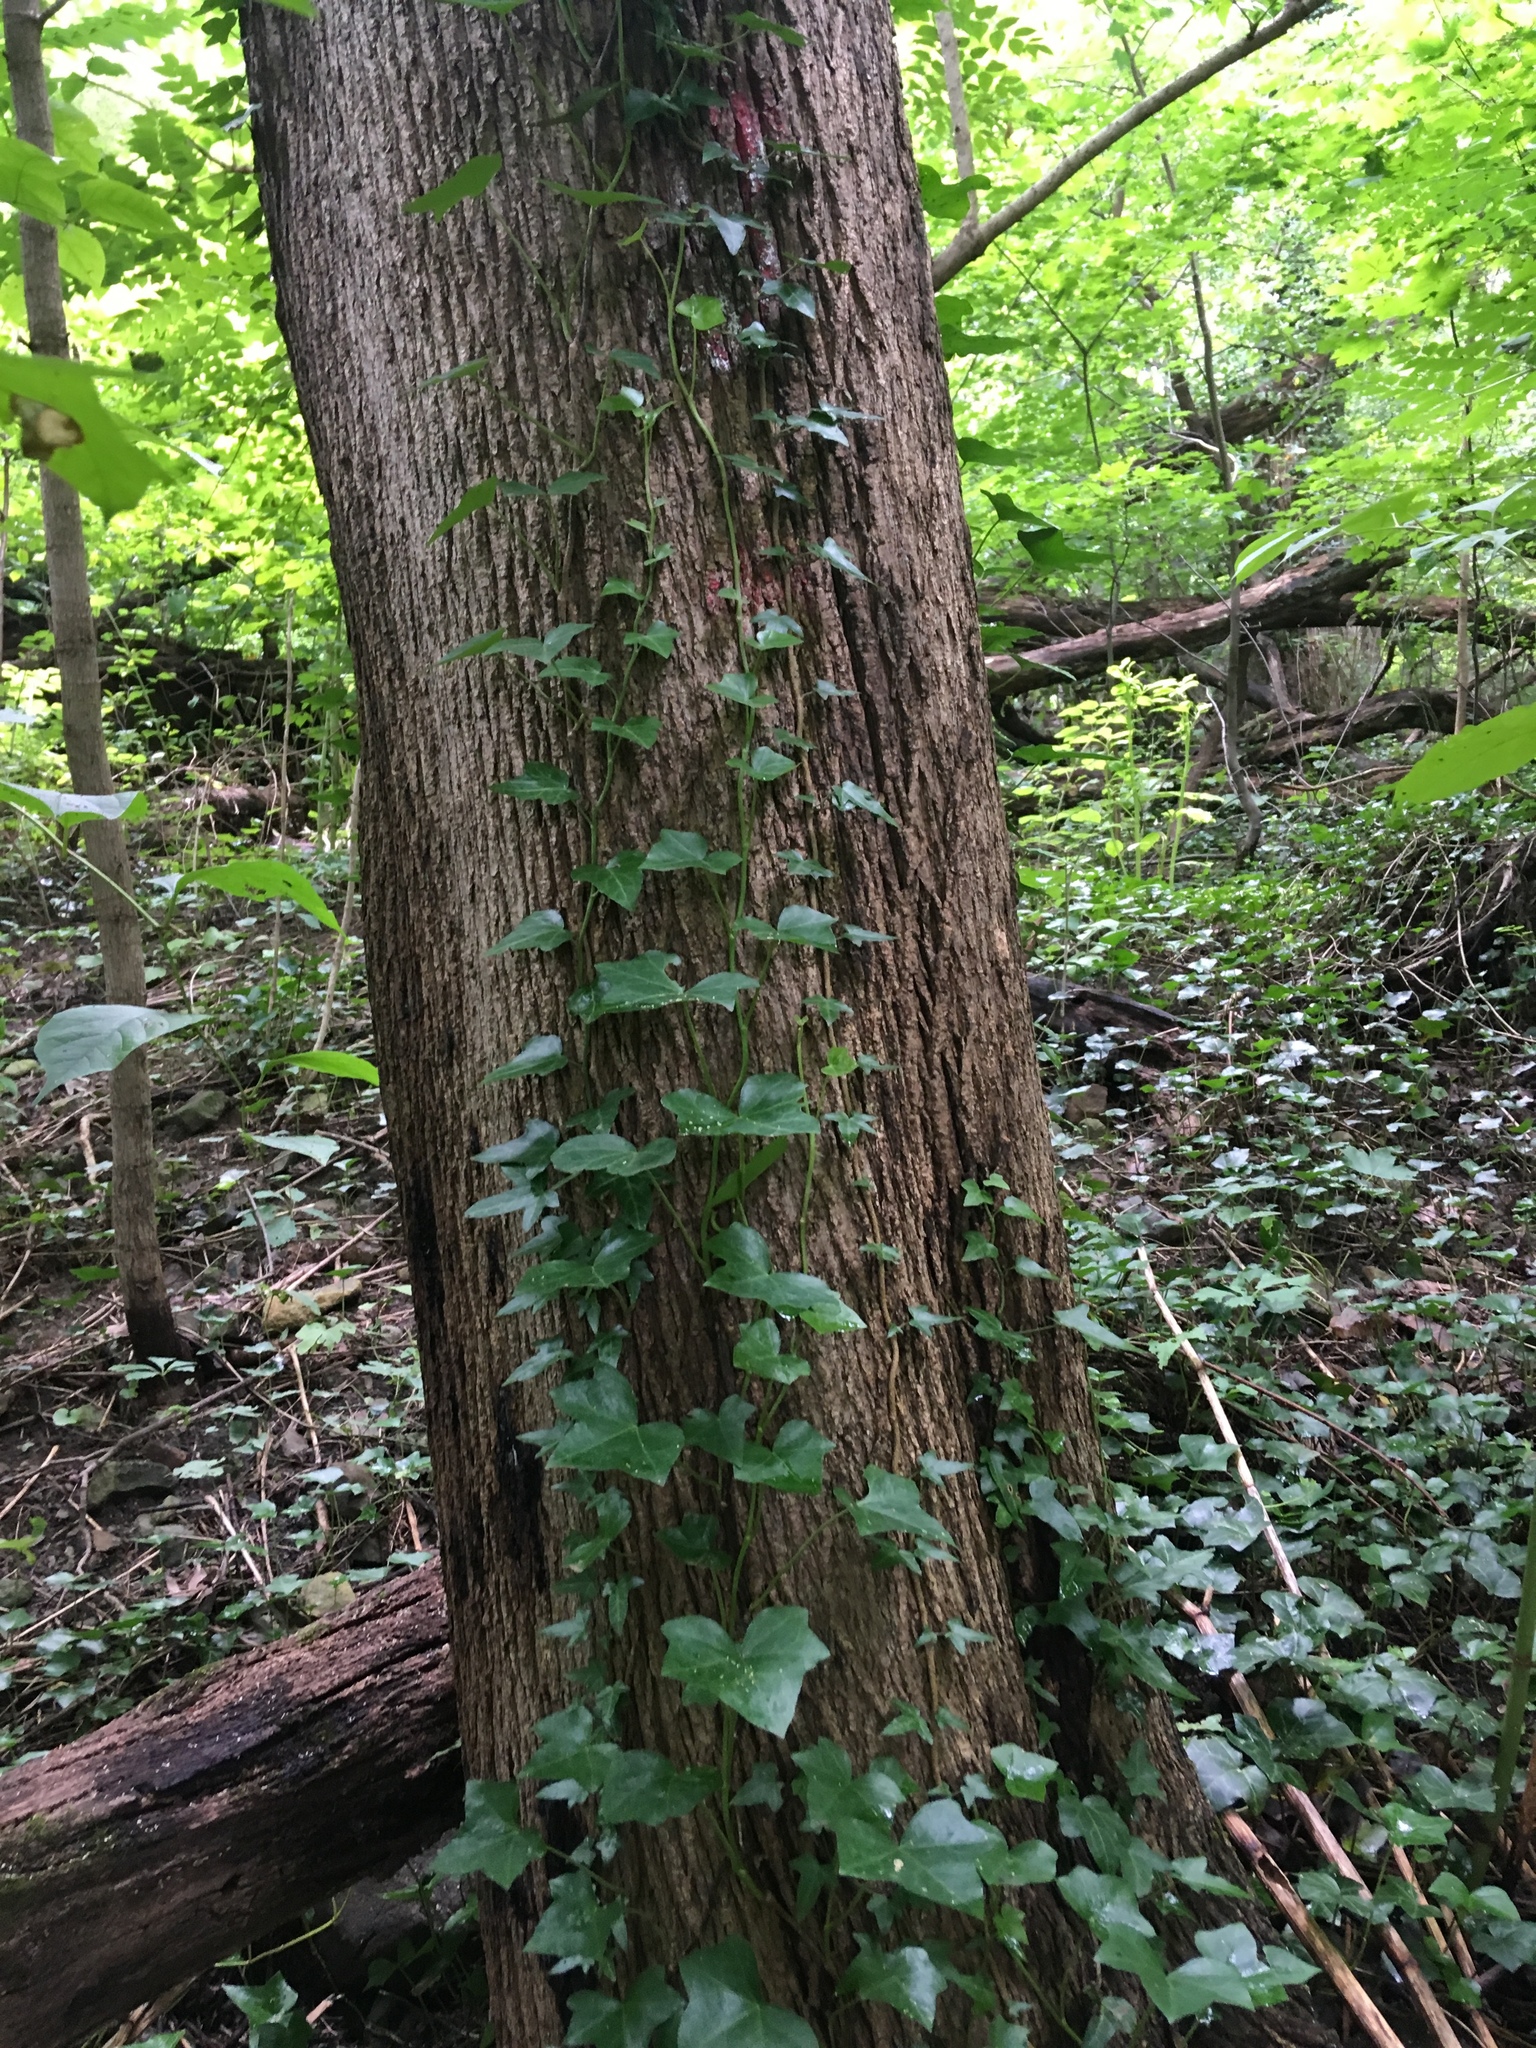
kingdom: Plantae
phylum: Tracheophyta
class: Magnoliopsida
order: Apiales
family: Araliaceae
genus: Hedera
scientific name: Hedera helix
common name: Ivy
